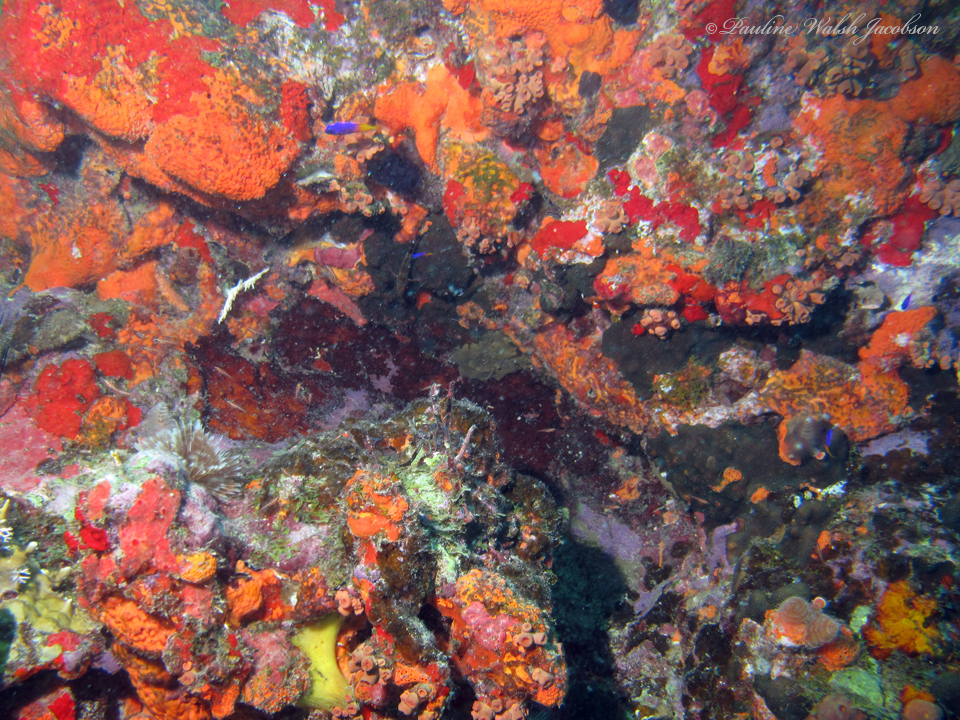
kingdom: Animalia
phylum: Porifera
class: Demospongiae
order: Agelasida
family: Agelasidae
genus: Agelas
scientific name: Agelas clathrodes
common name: Orange elephant ear sponge
